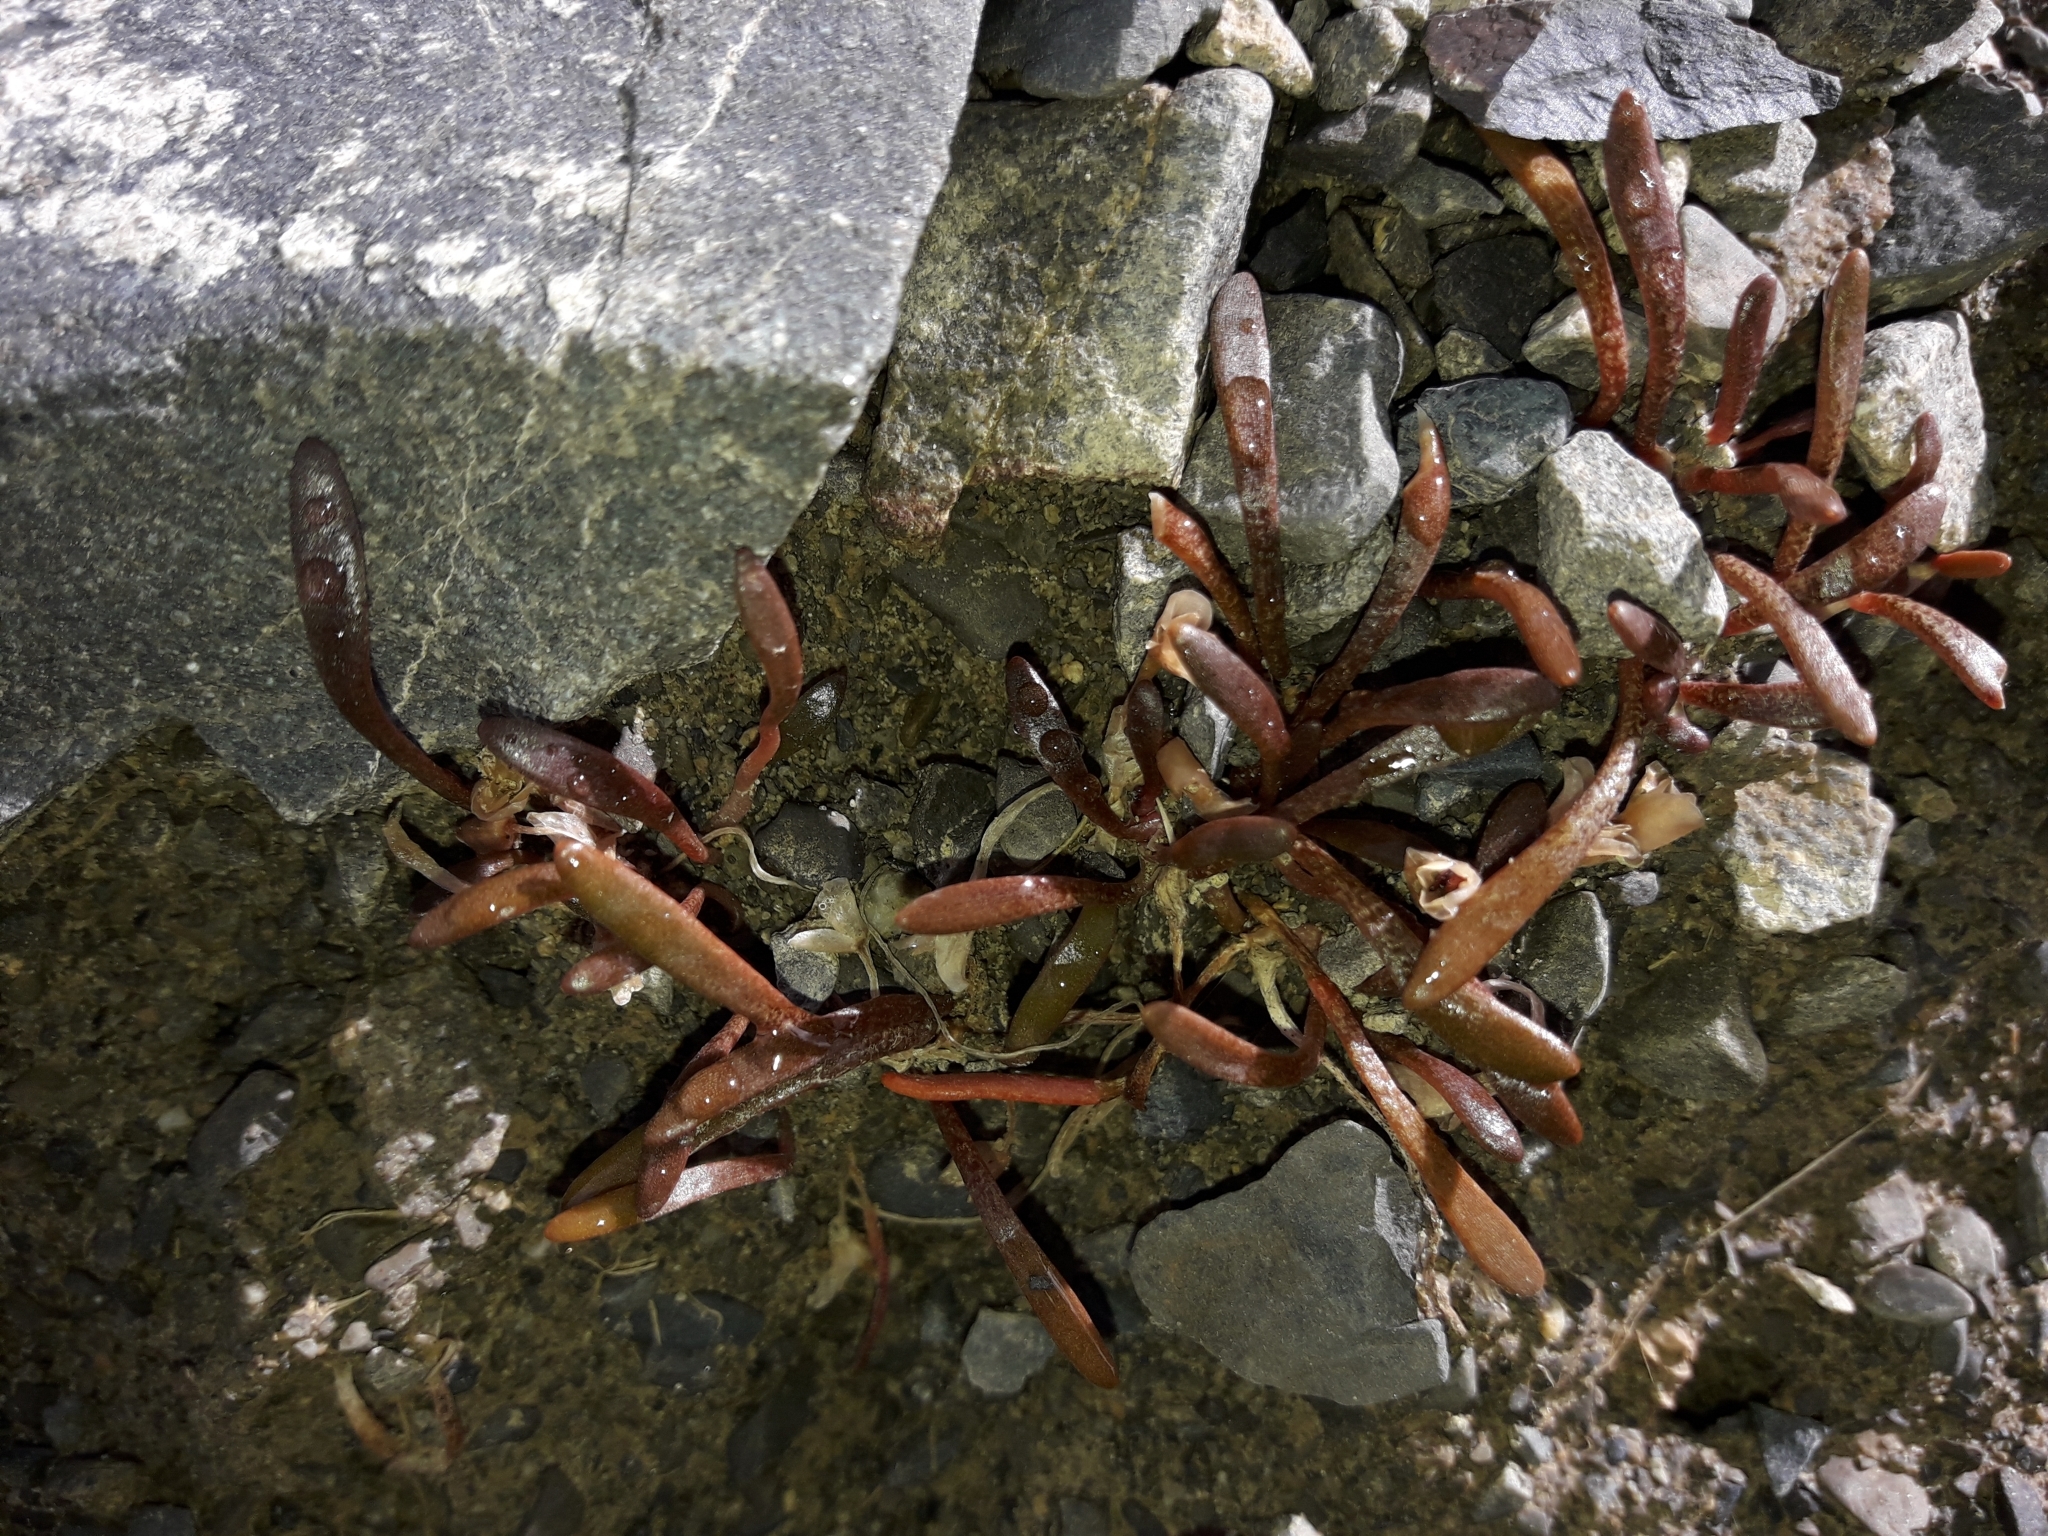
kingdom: Plantae
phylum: Tracheophyta
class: Magnoliopsida
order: Caryophyllales
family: Montiaceae
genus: Montia
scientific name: Montia erythrophylla
